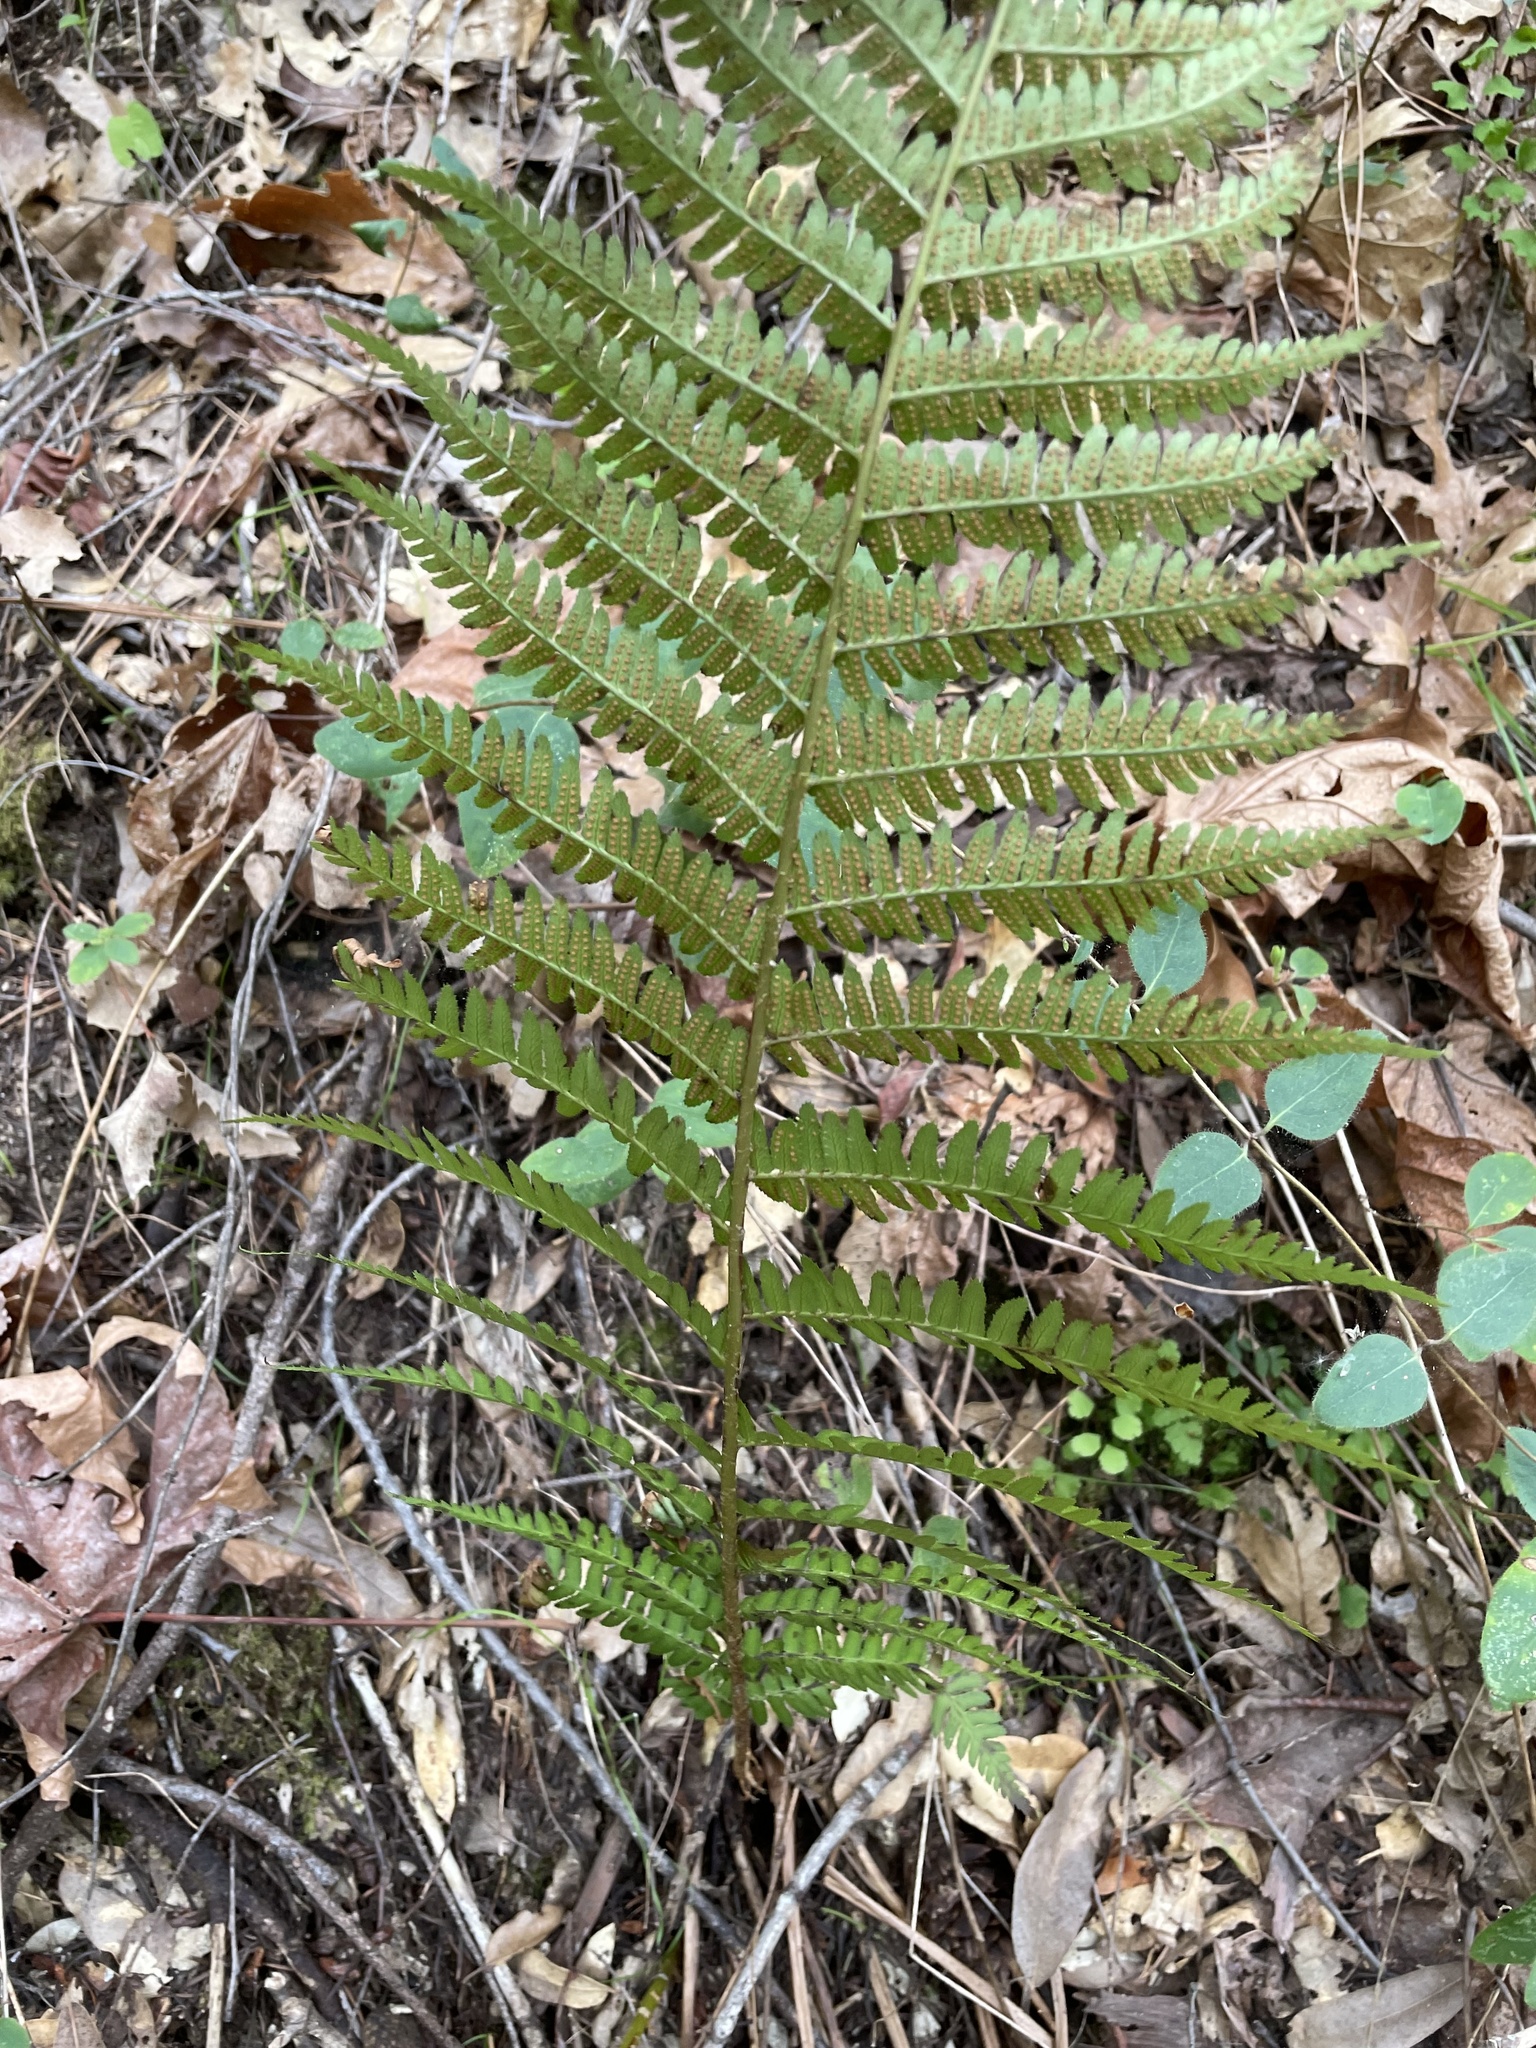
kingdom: Plantae
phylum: Tracheophyta
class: Polypodiopsida
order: Polypodiales
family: Dryopteridaceae
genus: Dryopteris
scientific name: Dryopteris arguta
